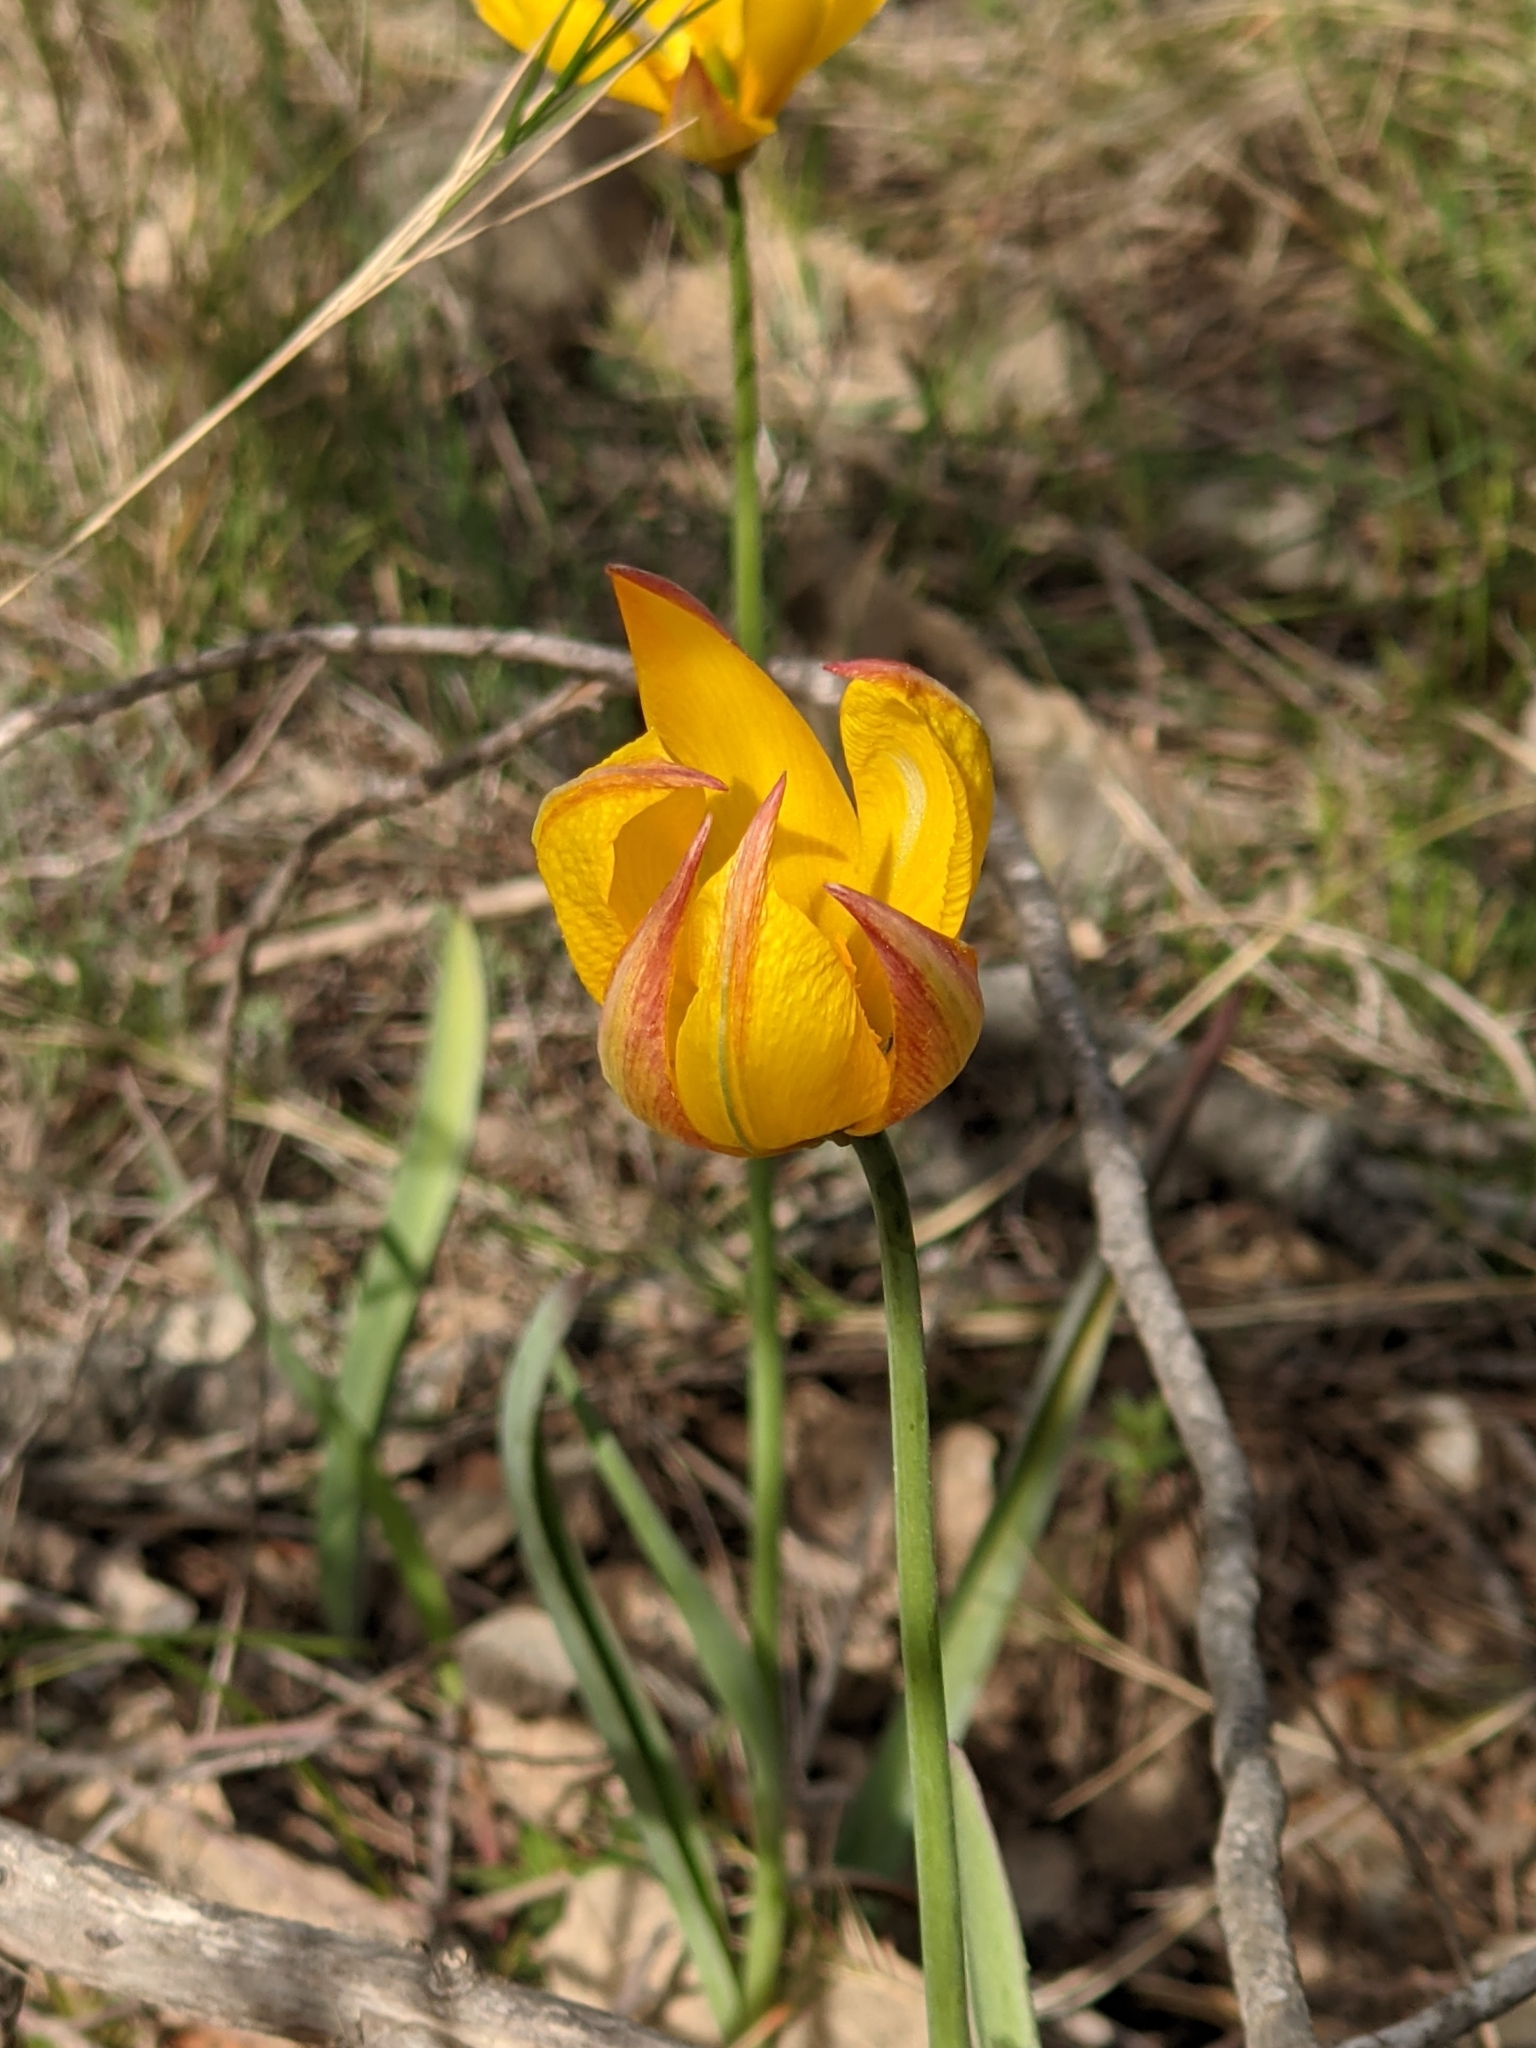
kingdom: Plantae
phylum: Tracheophyta
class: Liliopsida
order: Liliales
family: Liliaceae
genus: Tulipa
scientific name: Tulipa sylvestris
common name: Wild tulip
